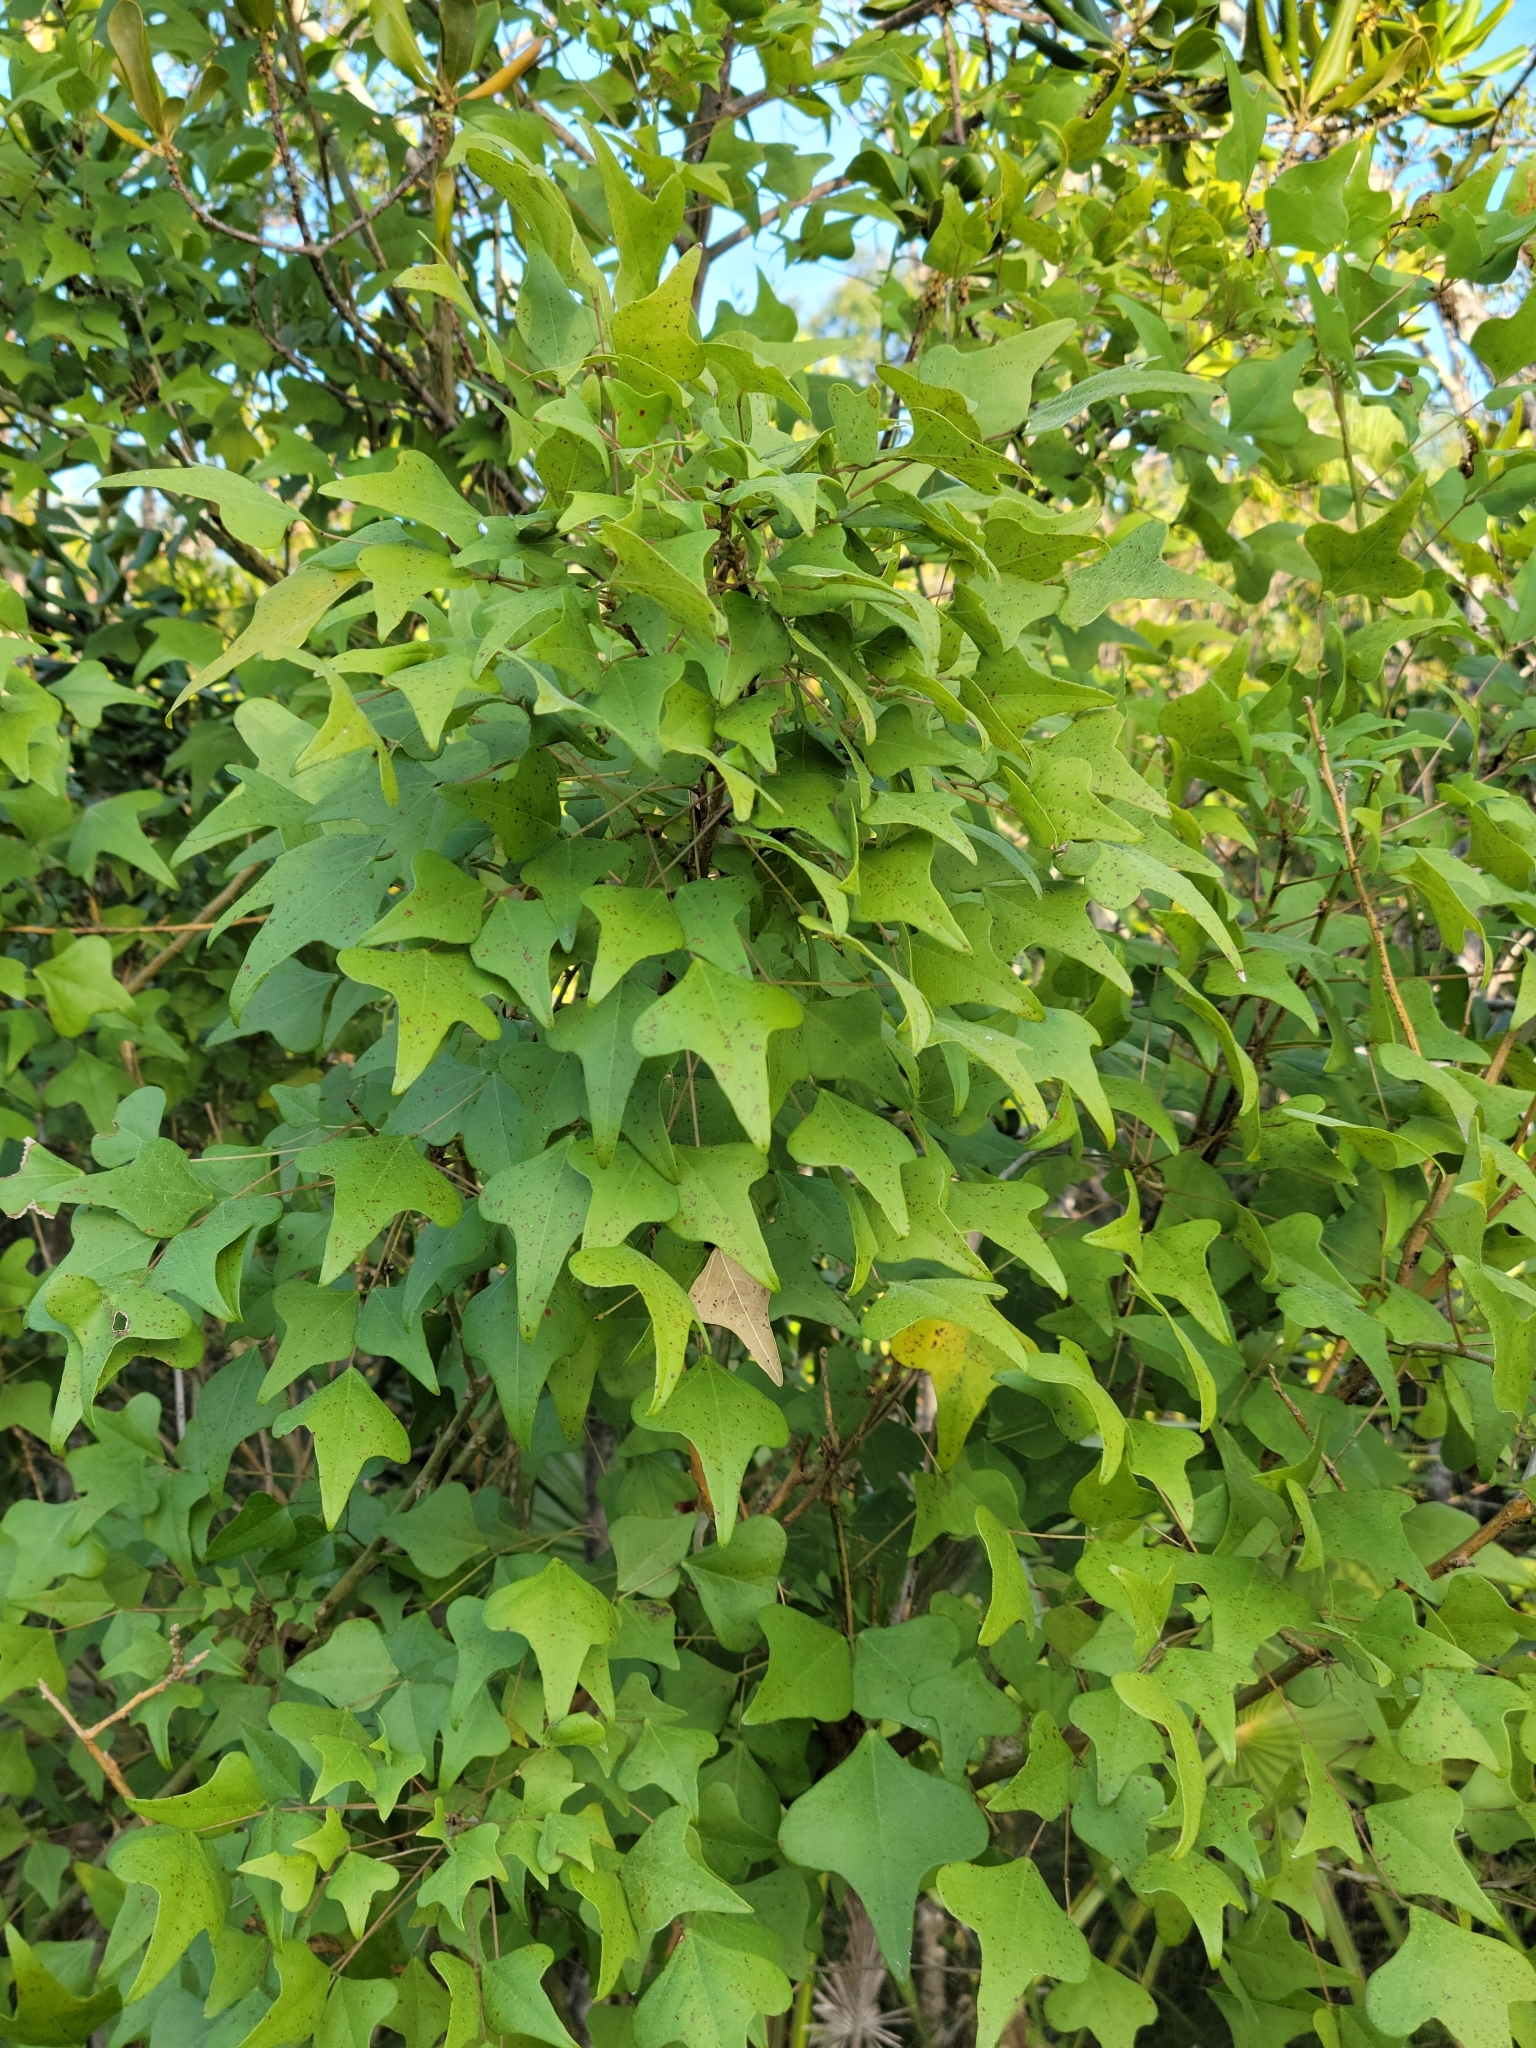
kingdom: Plantae
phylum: Tracheophyta
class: Magnoliopsida
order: Fabales
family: Fabaceae
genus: Erythrina
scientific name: Erythrina herbacea
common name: Coral-bean
